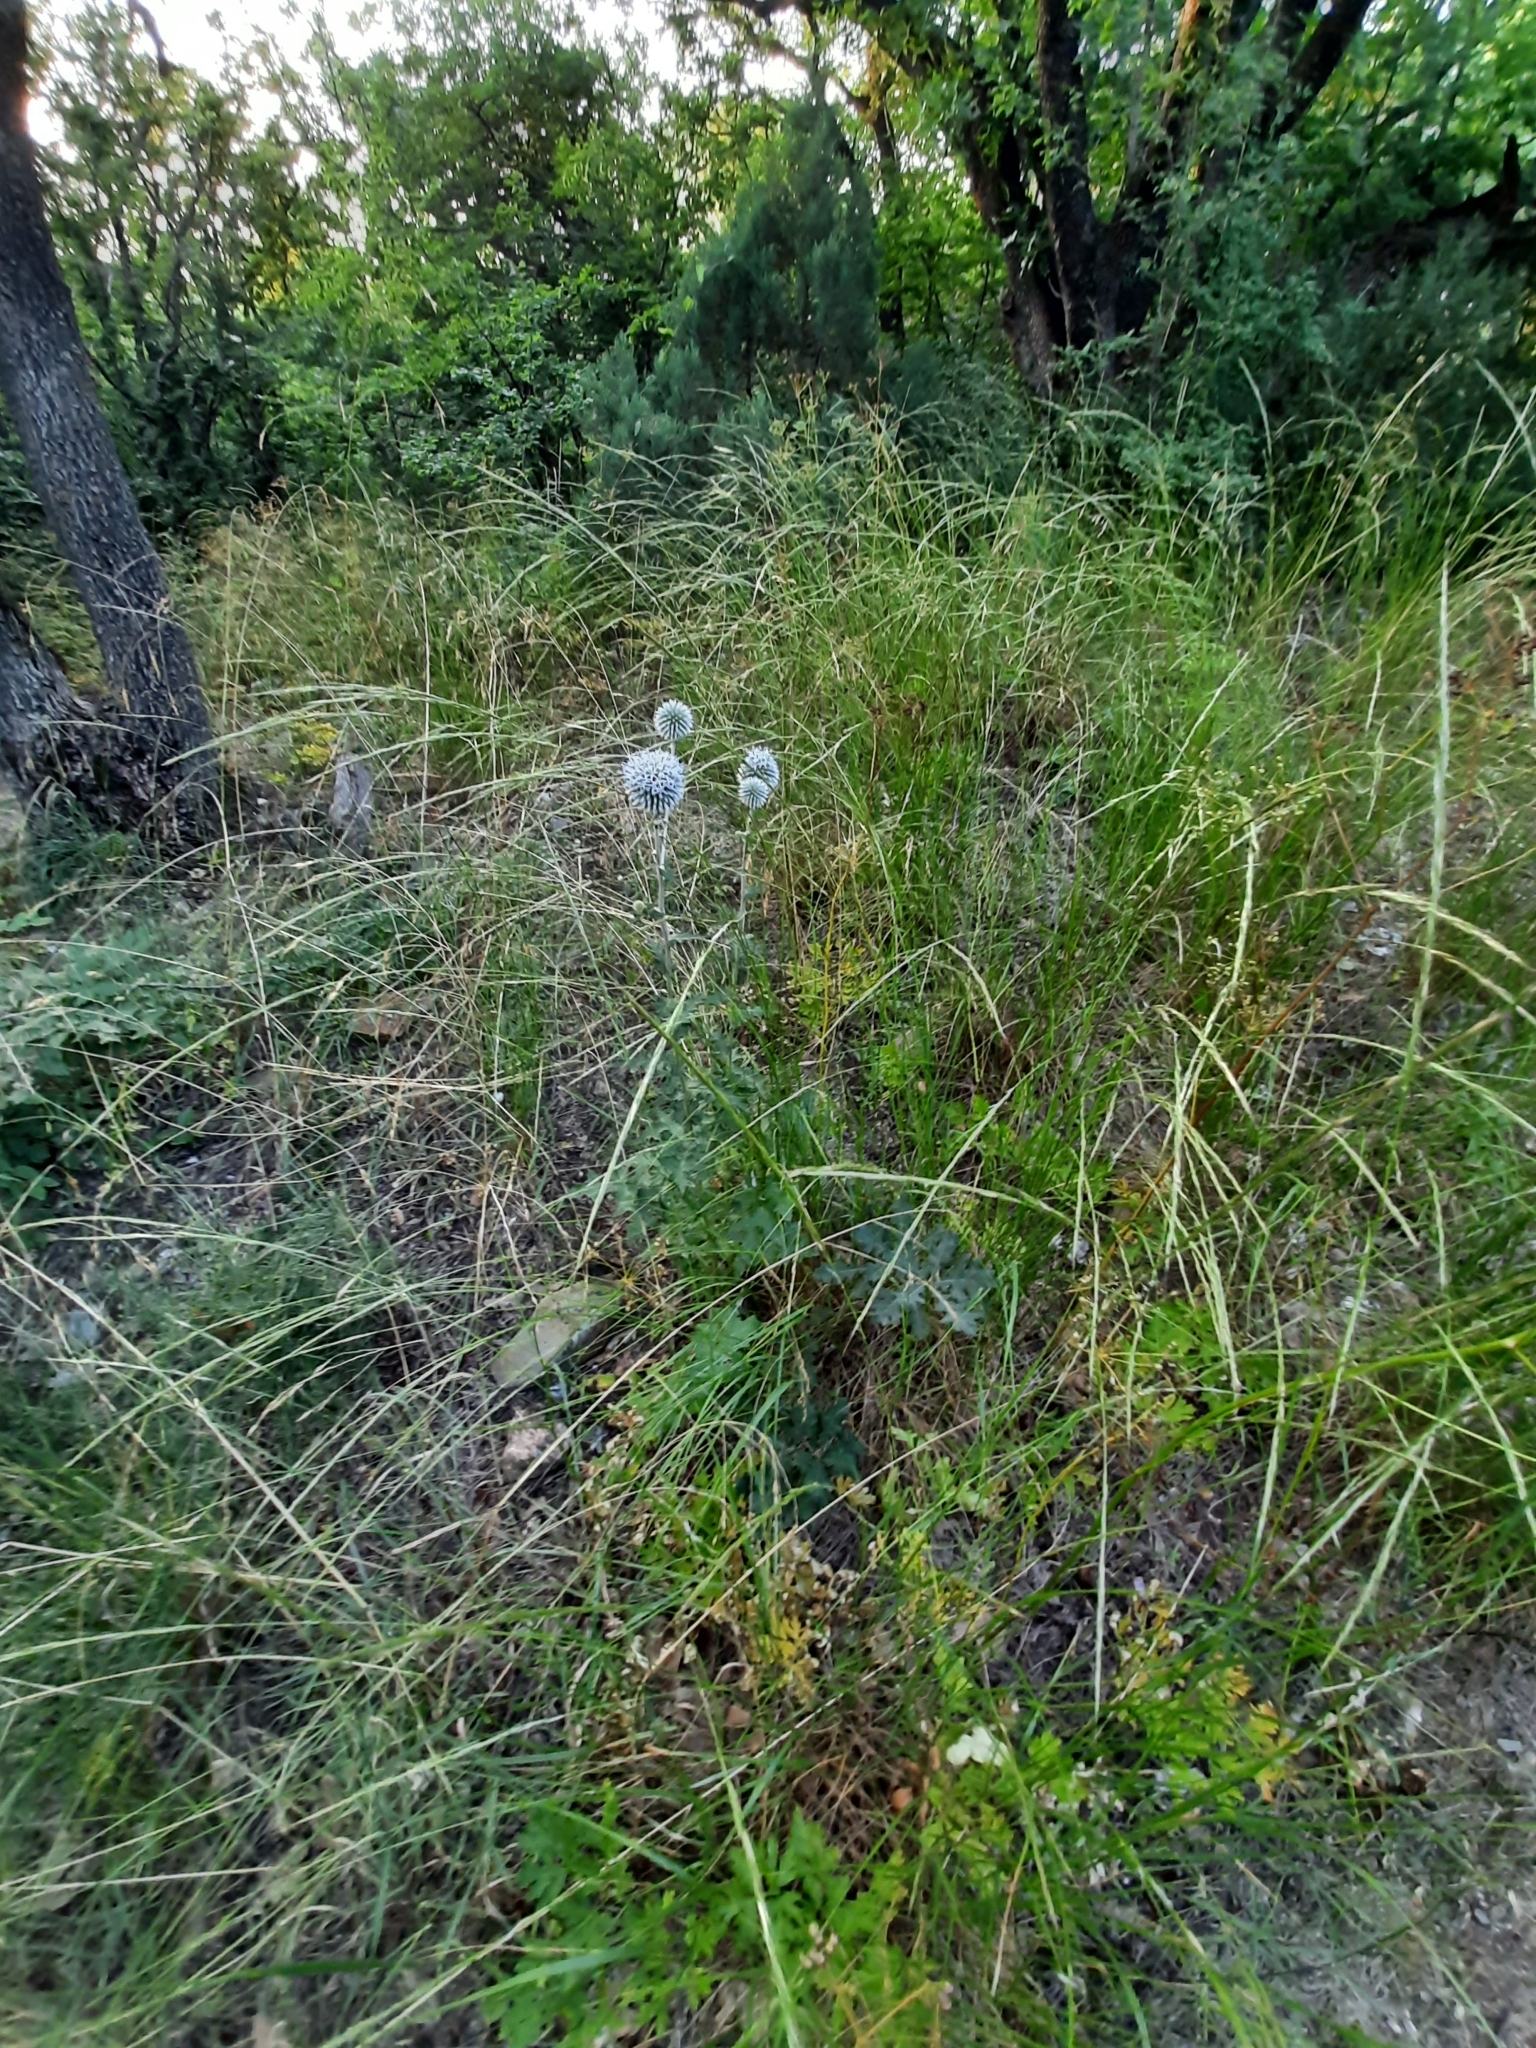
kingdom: Plantae
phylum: Tracheophyta
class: Magnoliopsida
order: Asterales
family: Asteraceae
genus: Echinops
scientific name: Echinops sphaerocephalus
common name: Glandular globe-thistle
